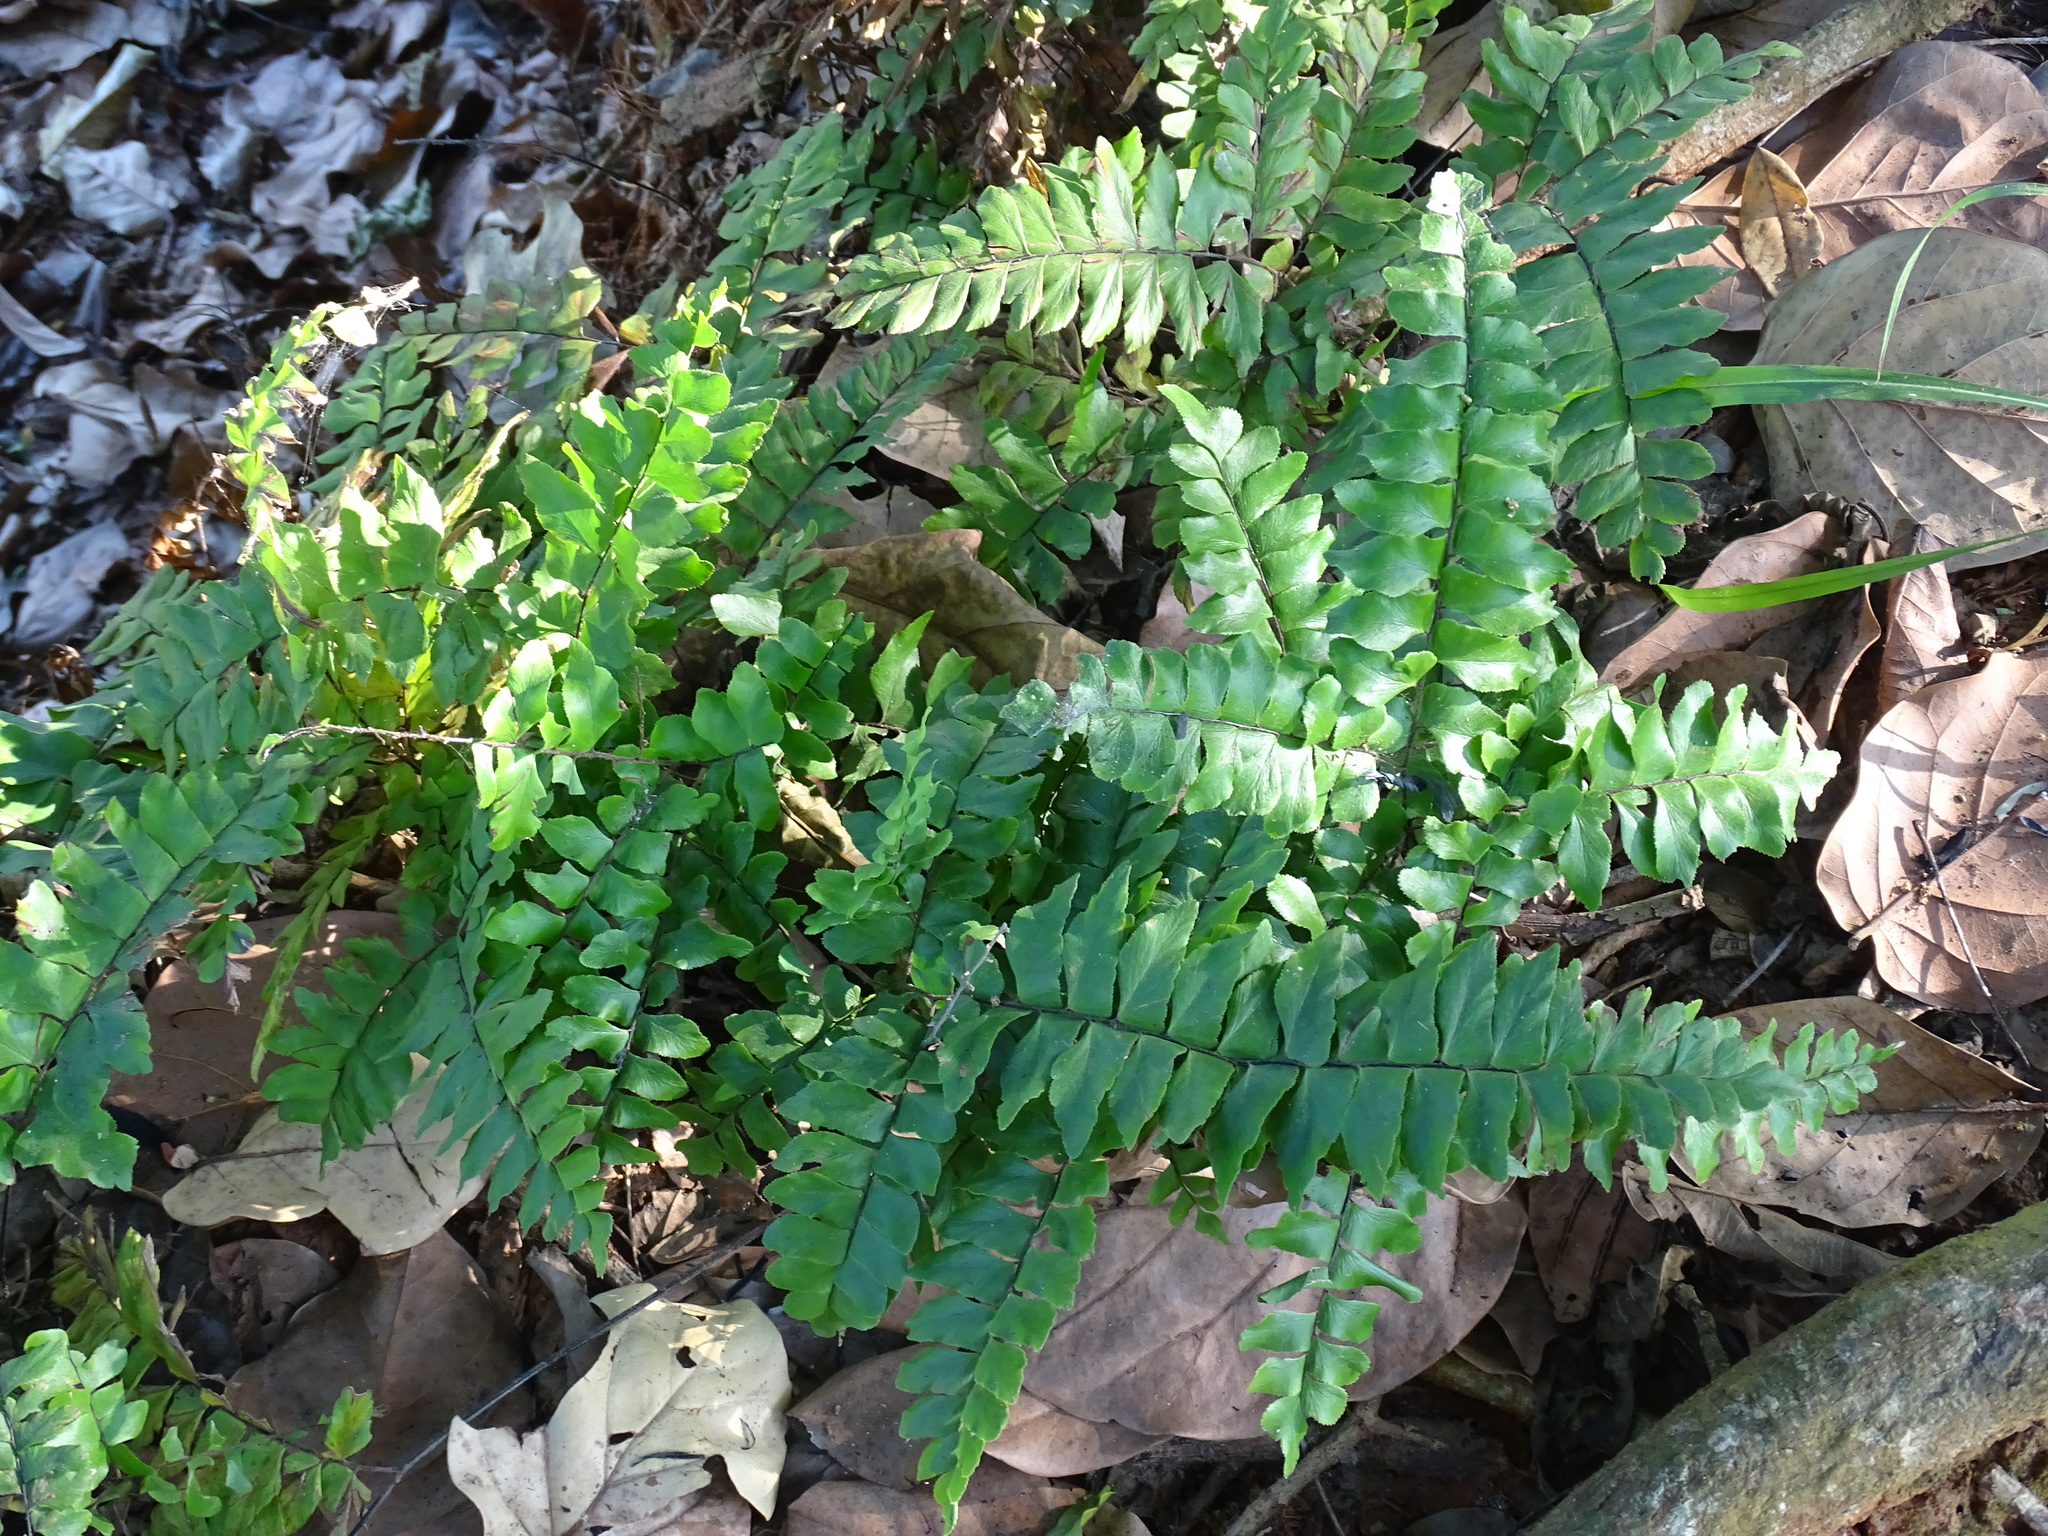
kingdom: Plantae
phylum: Tracheophyta
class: Polypodiopsida
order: Polypodiales
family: Pteridaceae
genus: Adiantum
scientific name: Adiantum mcvaughii
